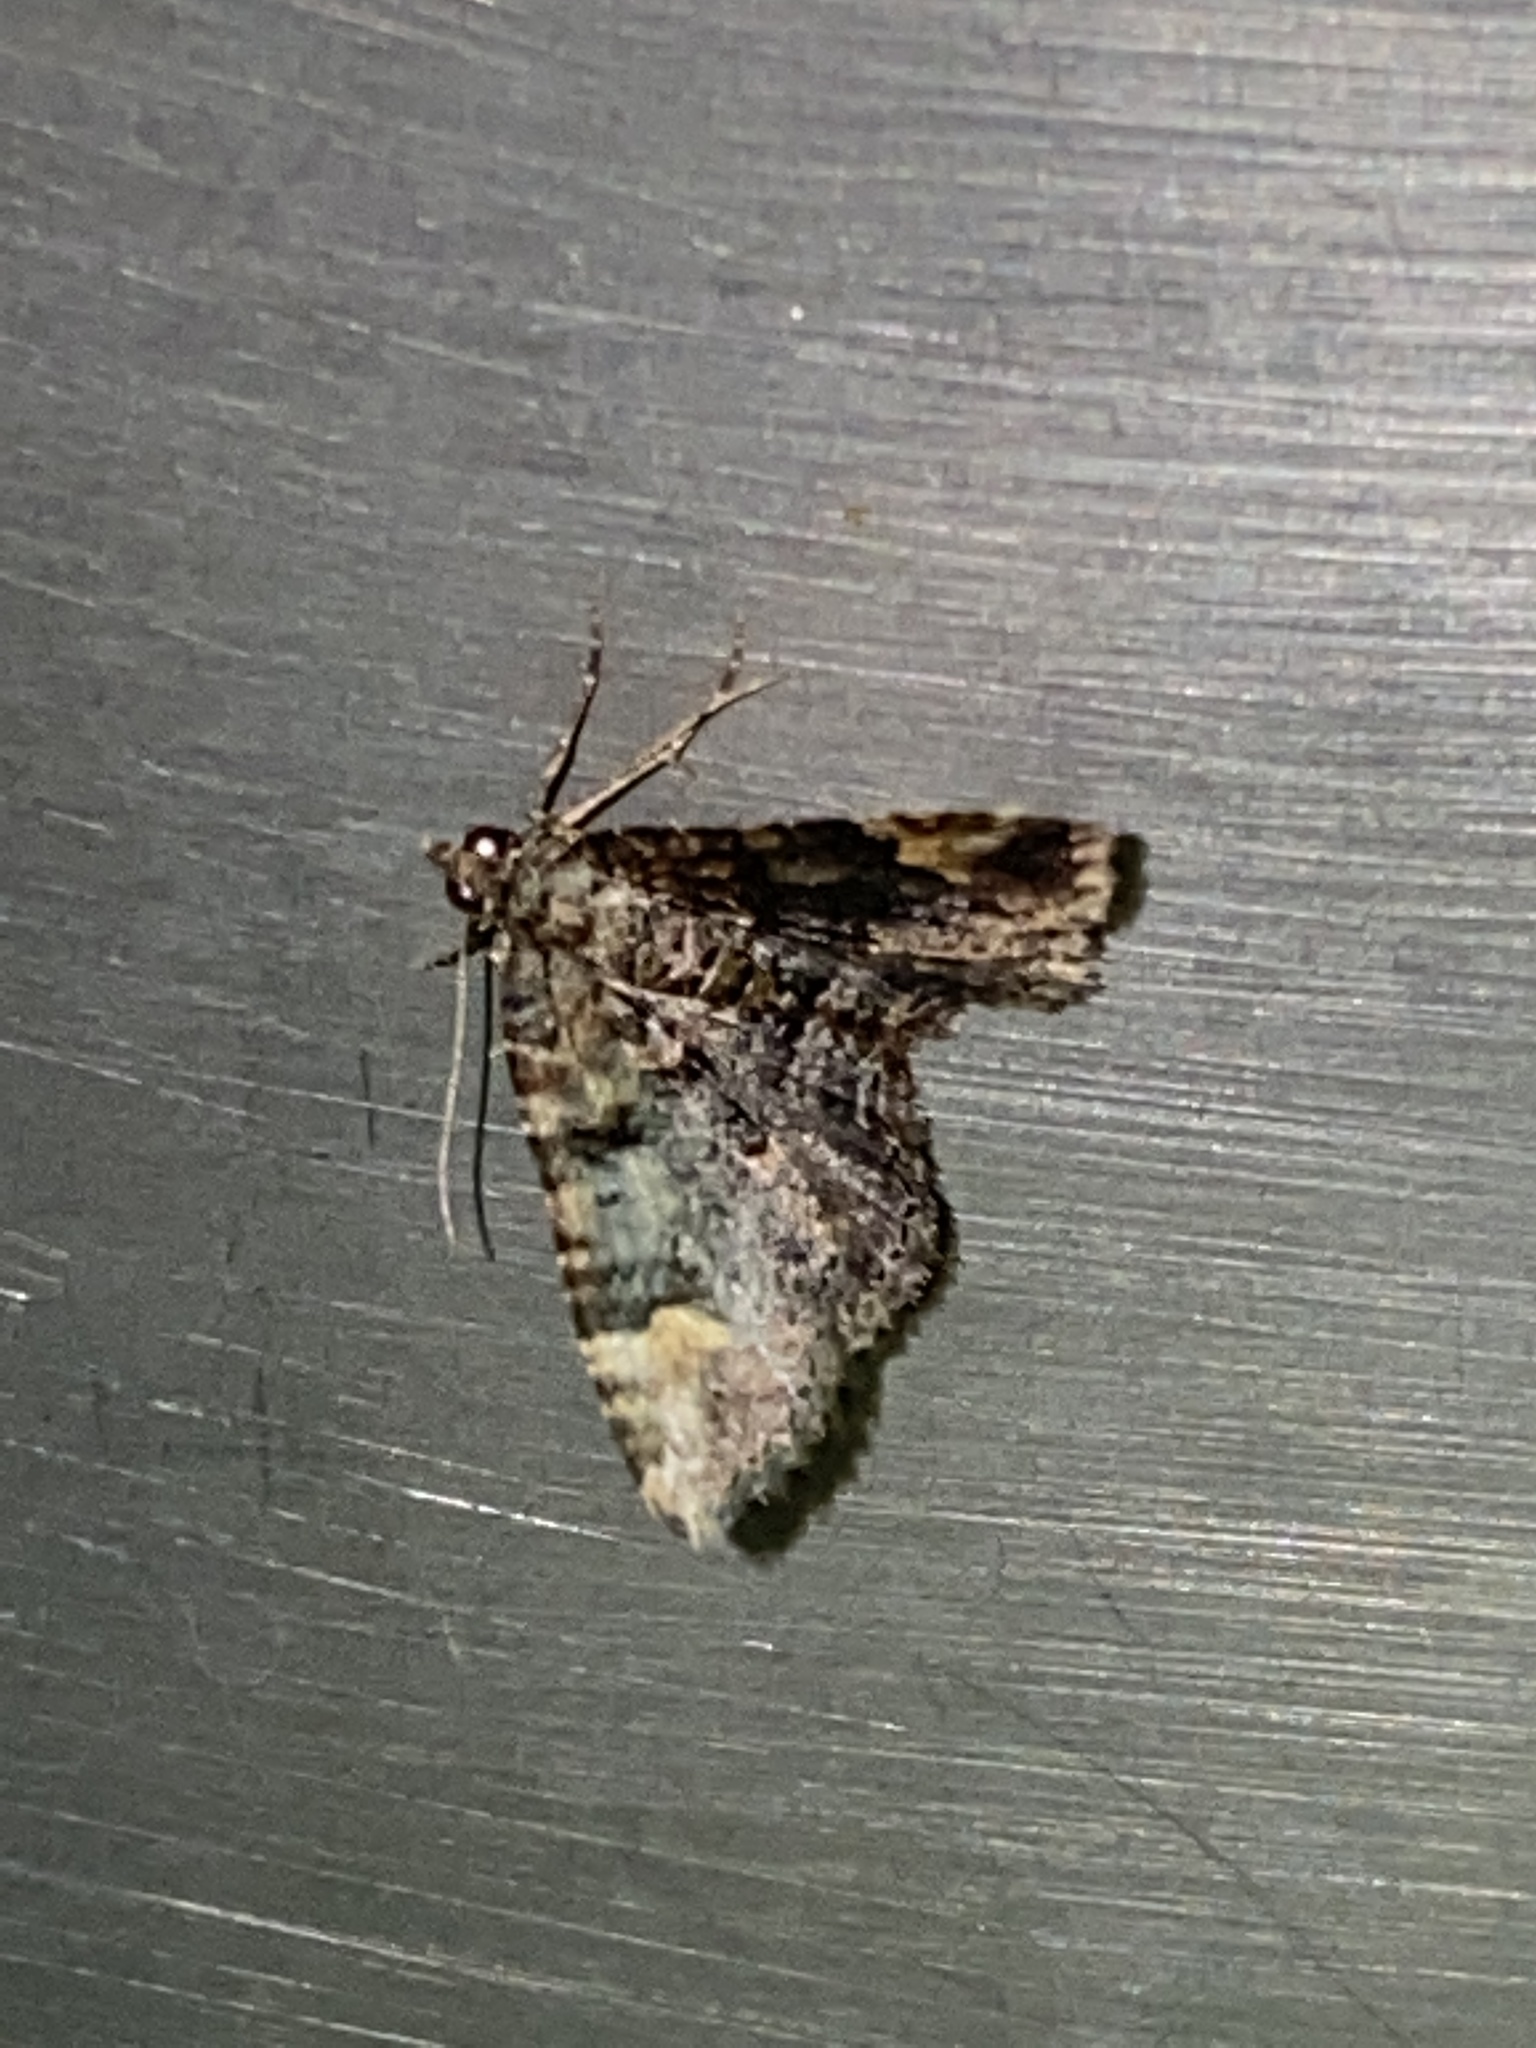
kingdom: Animalia
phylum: Arthropoda
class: Insecta
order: Lepidoptera
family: Geometridae
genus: Epyaxa
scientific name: Epyaxa sodaliata
